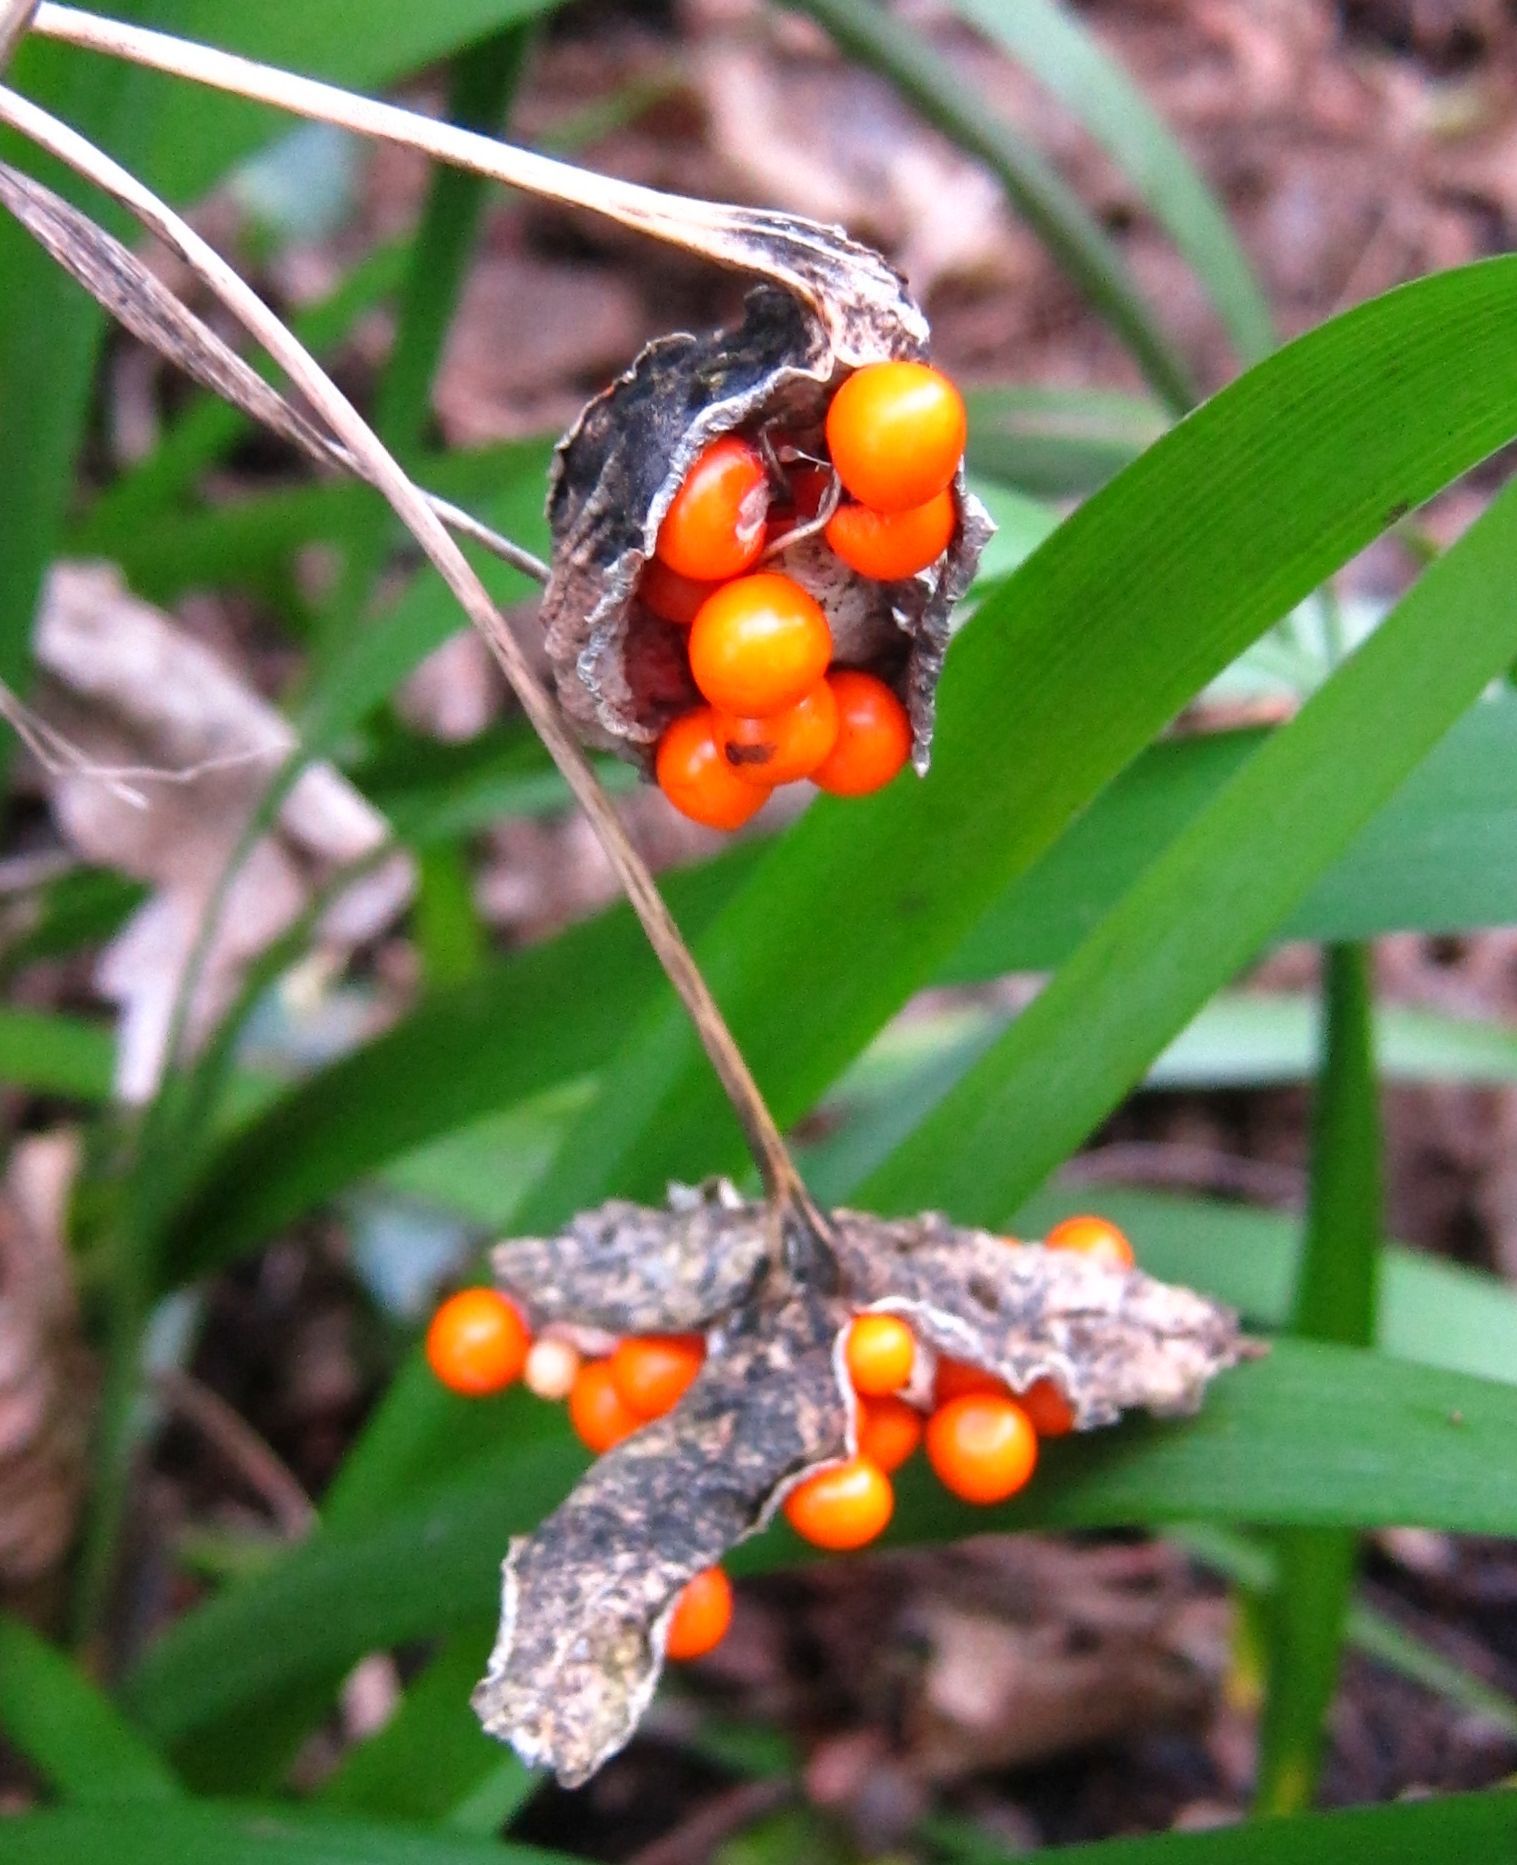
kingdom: Plantae
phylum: Tracheophyta
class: Liliopsida
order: Asparagales
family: Iridaceae
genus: Iris
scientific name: Iris foetidissima
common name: Stinking iris
